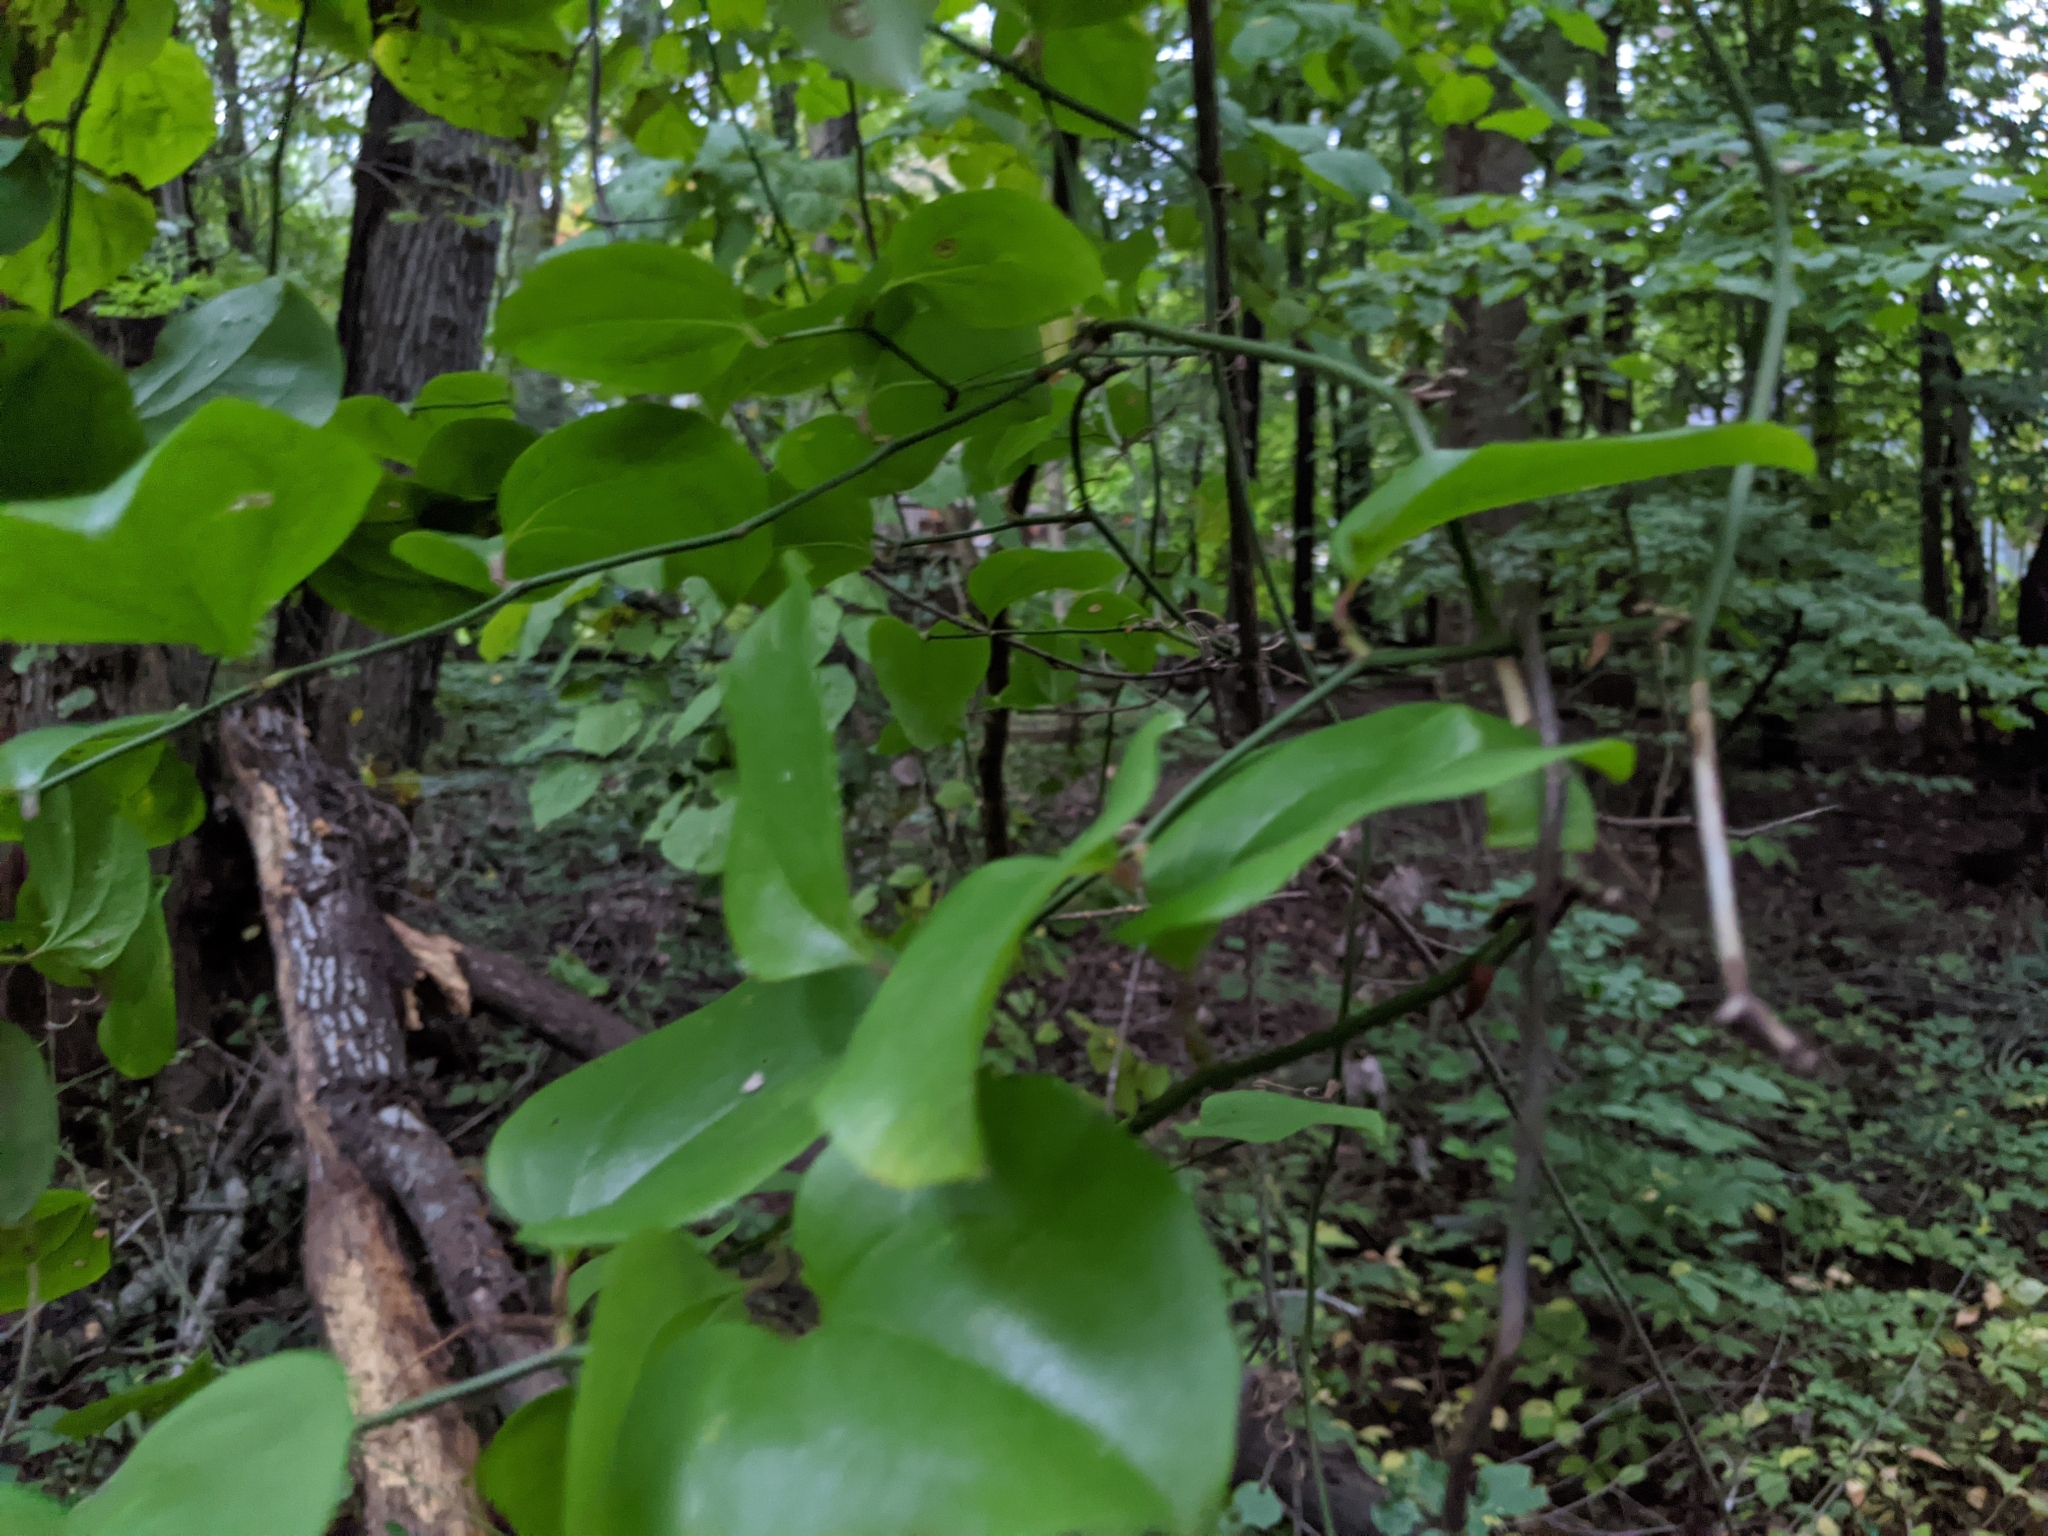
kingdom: Plantae
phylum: Tracheophyta
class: Liliopsida
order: Liliales
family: Smilacaceae
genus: Smilax
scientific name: Smilax rotundifolia
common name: Bullbriar
